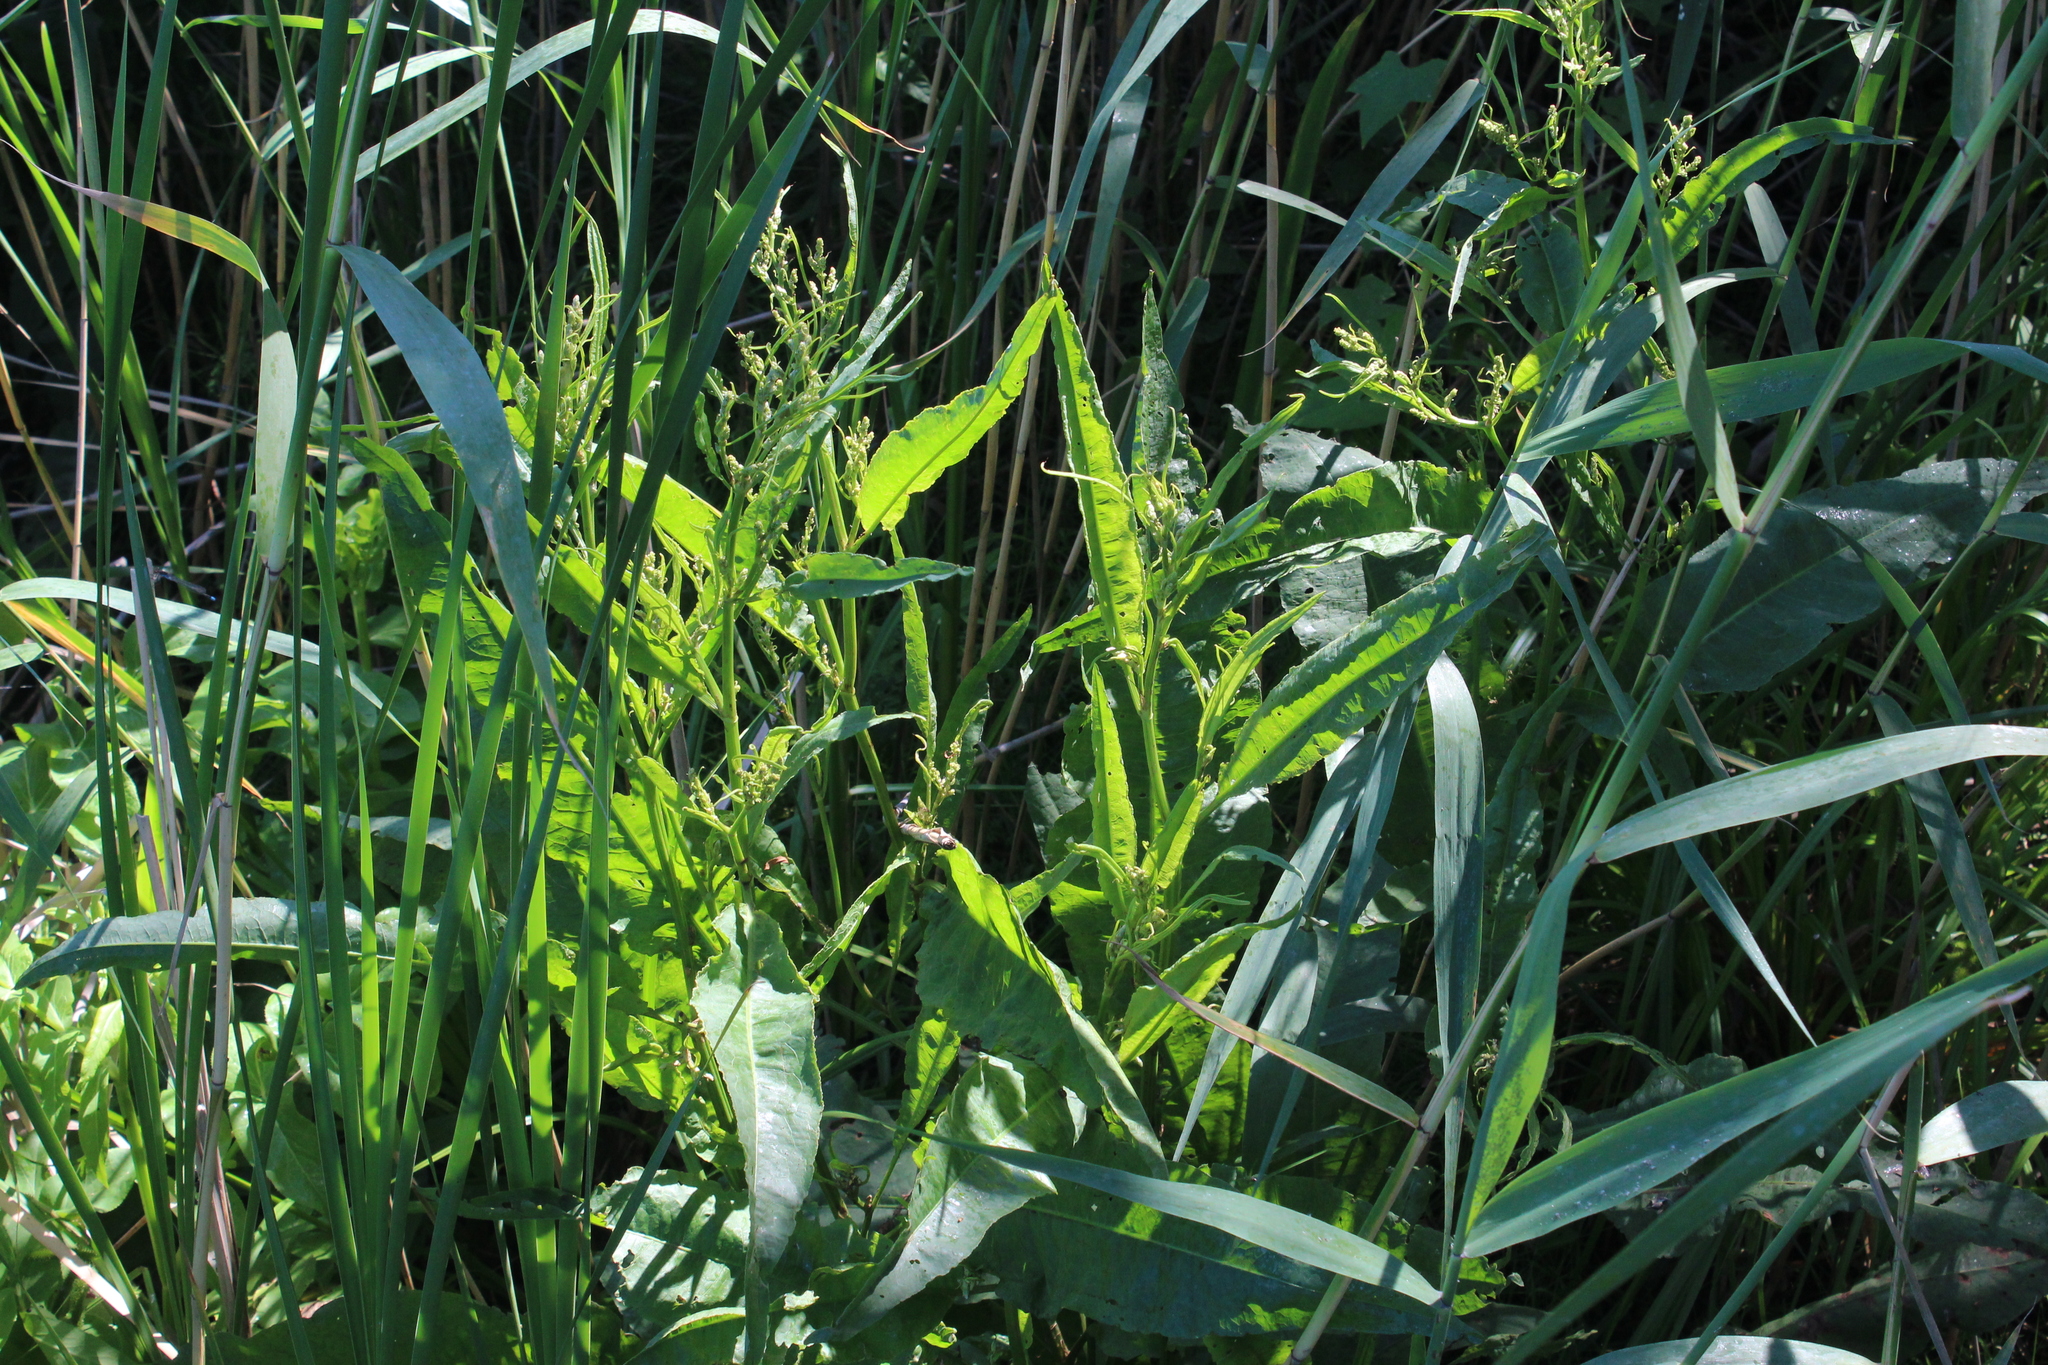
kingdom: Plantae
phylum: Tracheophyta
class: Magnoliopsida
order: Caryophyllales
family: Polygonaceae
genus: Rumex
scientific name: Rumex hydrolapathum
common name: Water dock
